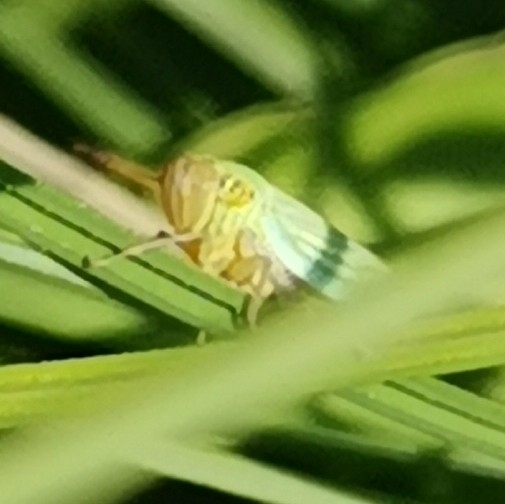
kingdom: Animalia
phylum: Arthropoda
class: Insecta
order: Hemiptera
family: Cicadellidae
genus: Cicadella
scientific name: Cicadella viridis
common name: Leafhopper
